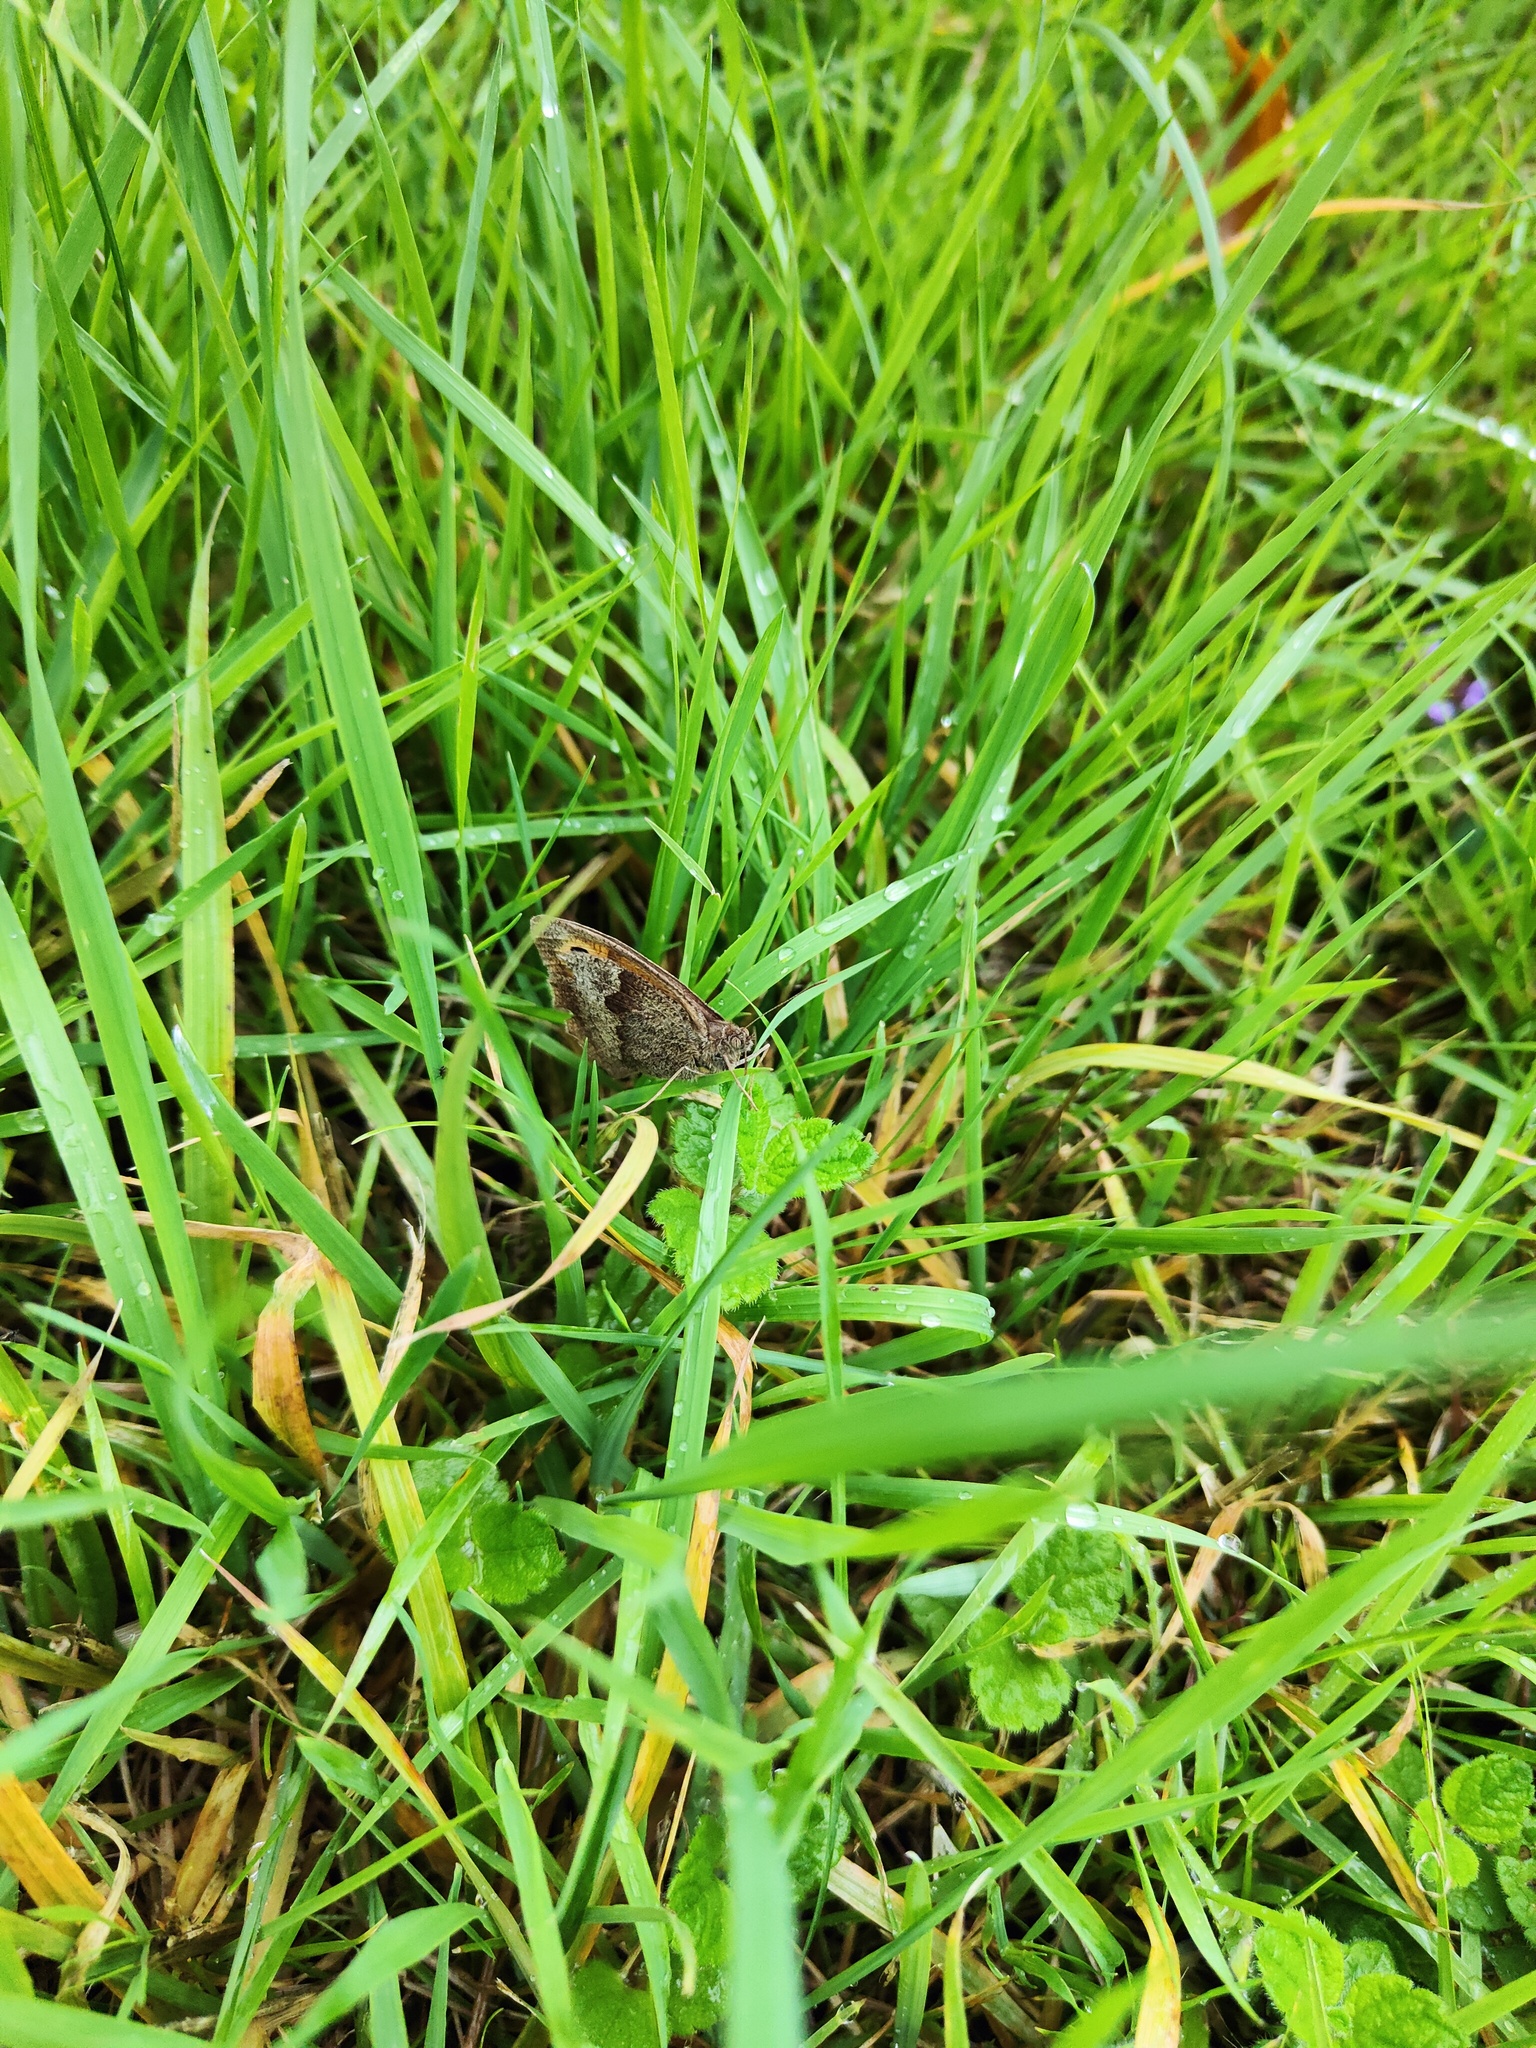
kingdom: Animalia
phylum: Arthropoda
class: Insecta
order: Lepidoptera
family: Nymphalidae
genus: Maniola
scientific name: Maniola jurtina
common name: Meadow brown
